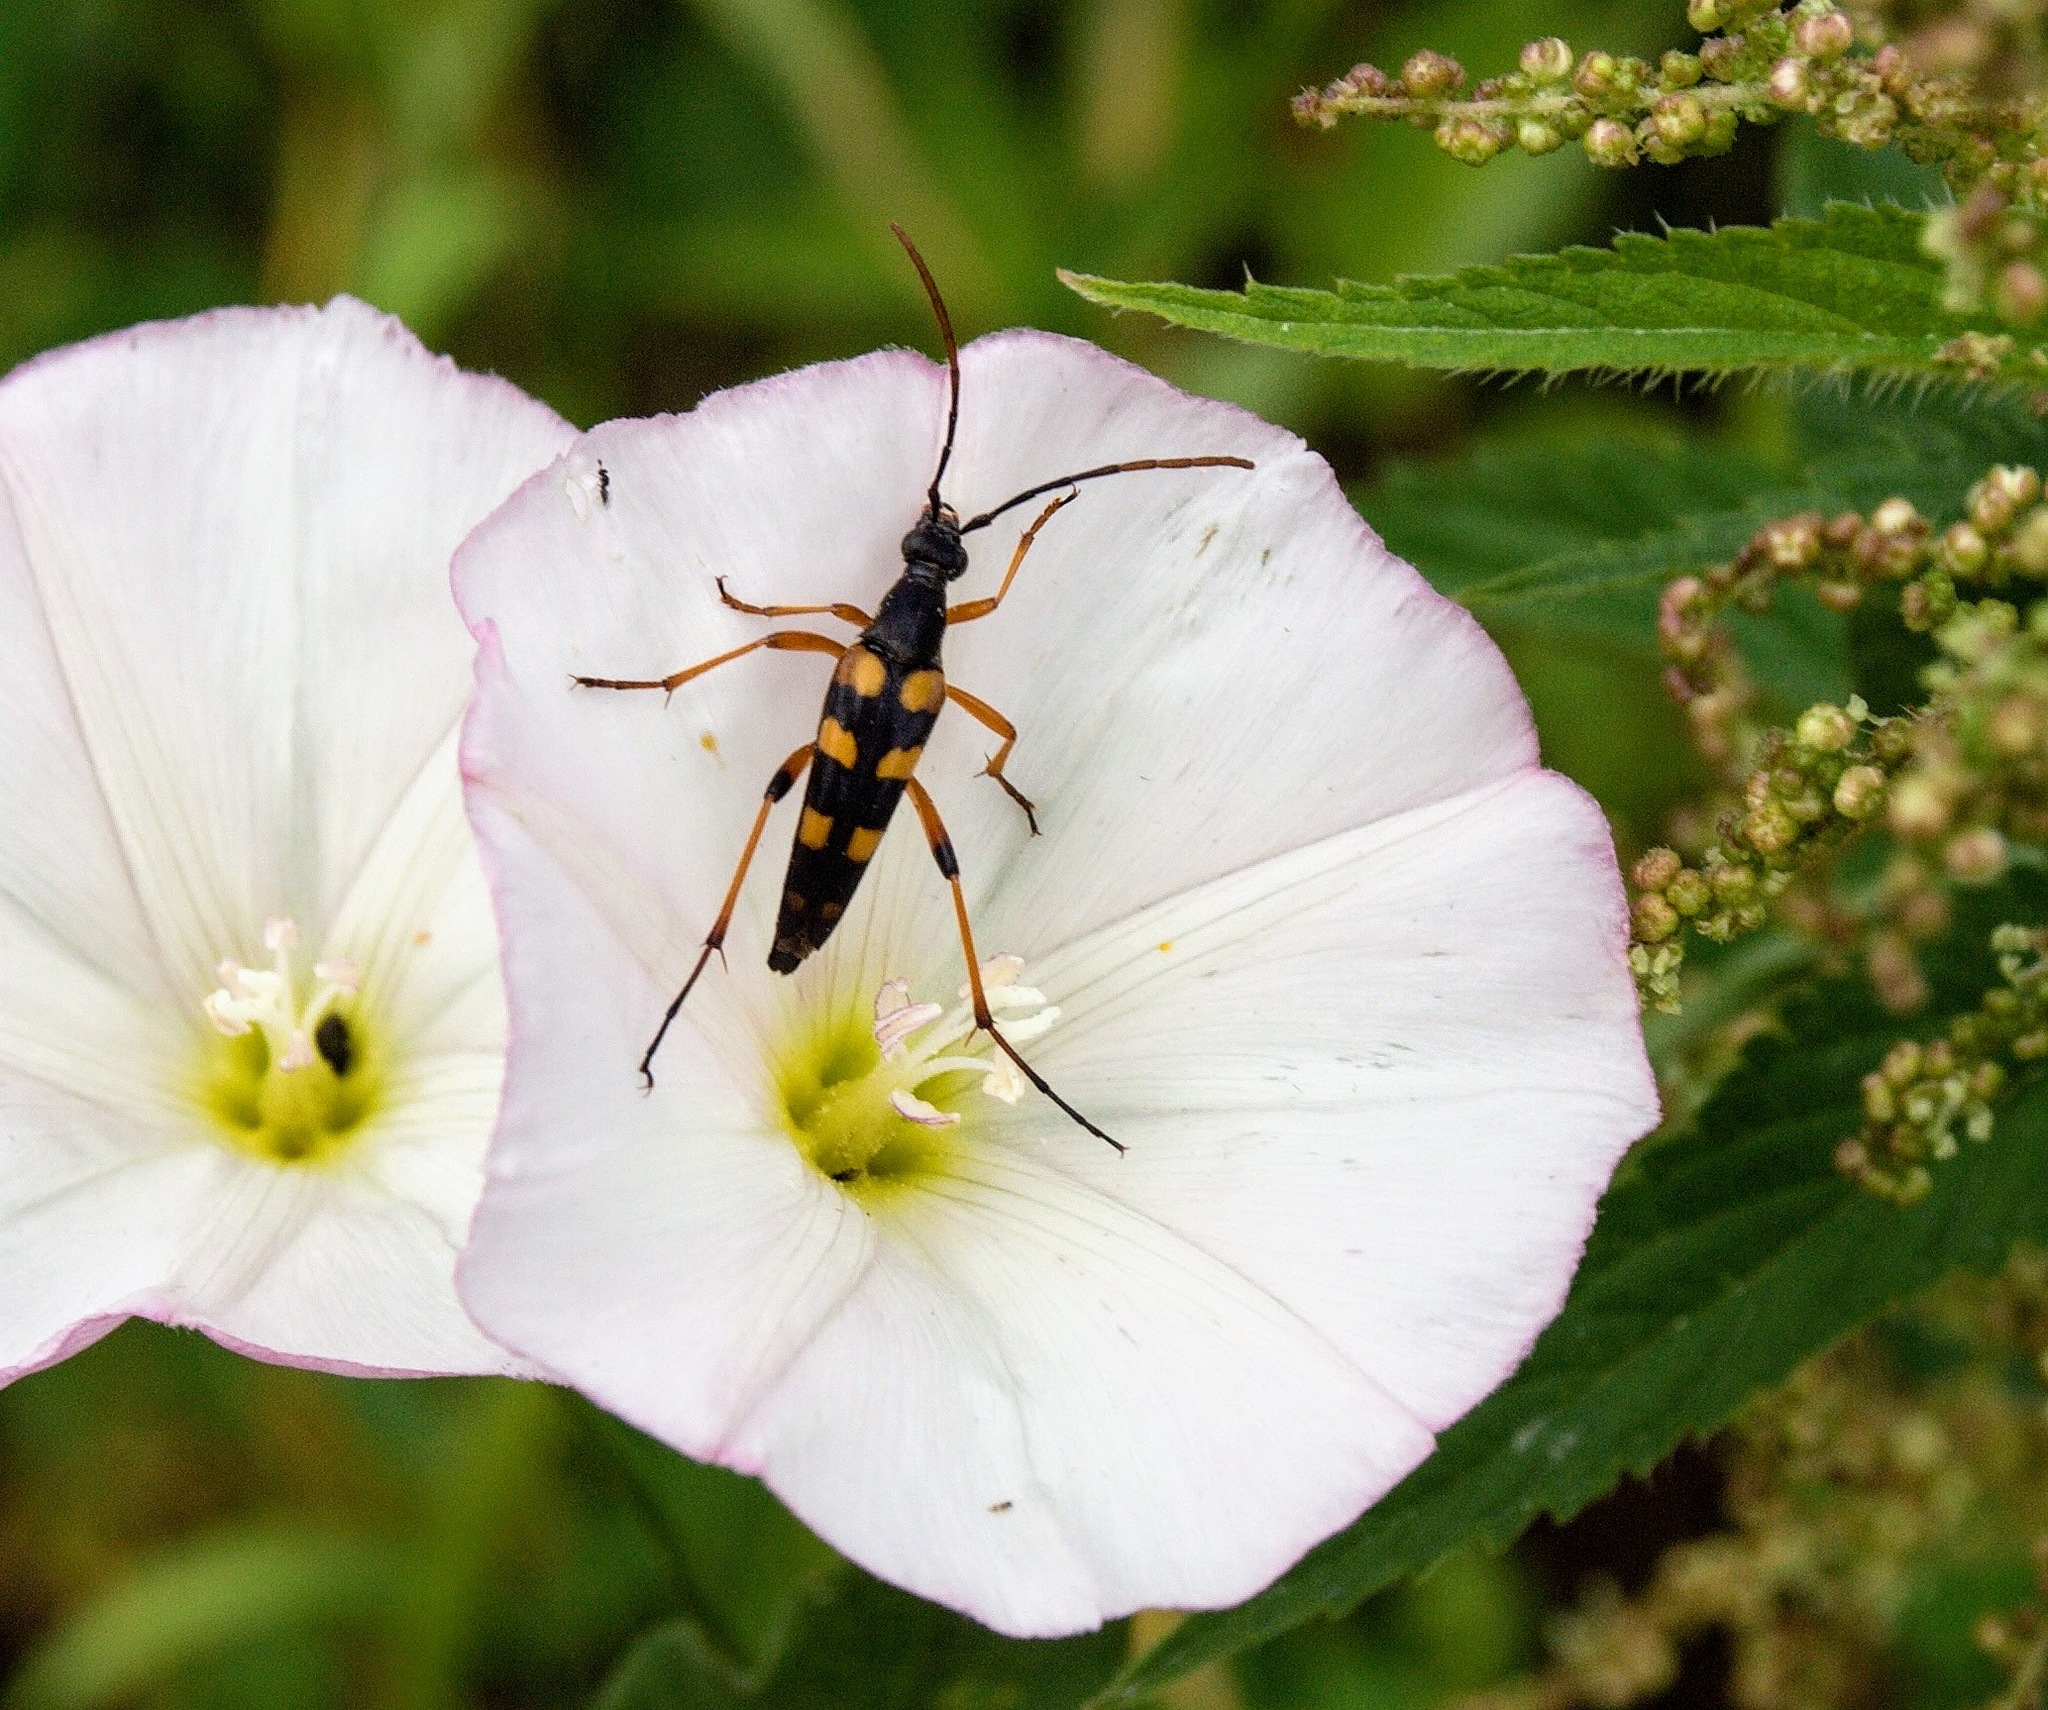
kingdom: Animalia
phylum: Arthropoda
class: Insecta
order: Coleoptera
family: Cerambycidae
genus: Strangalia
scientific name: Strangalia attenuata
